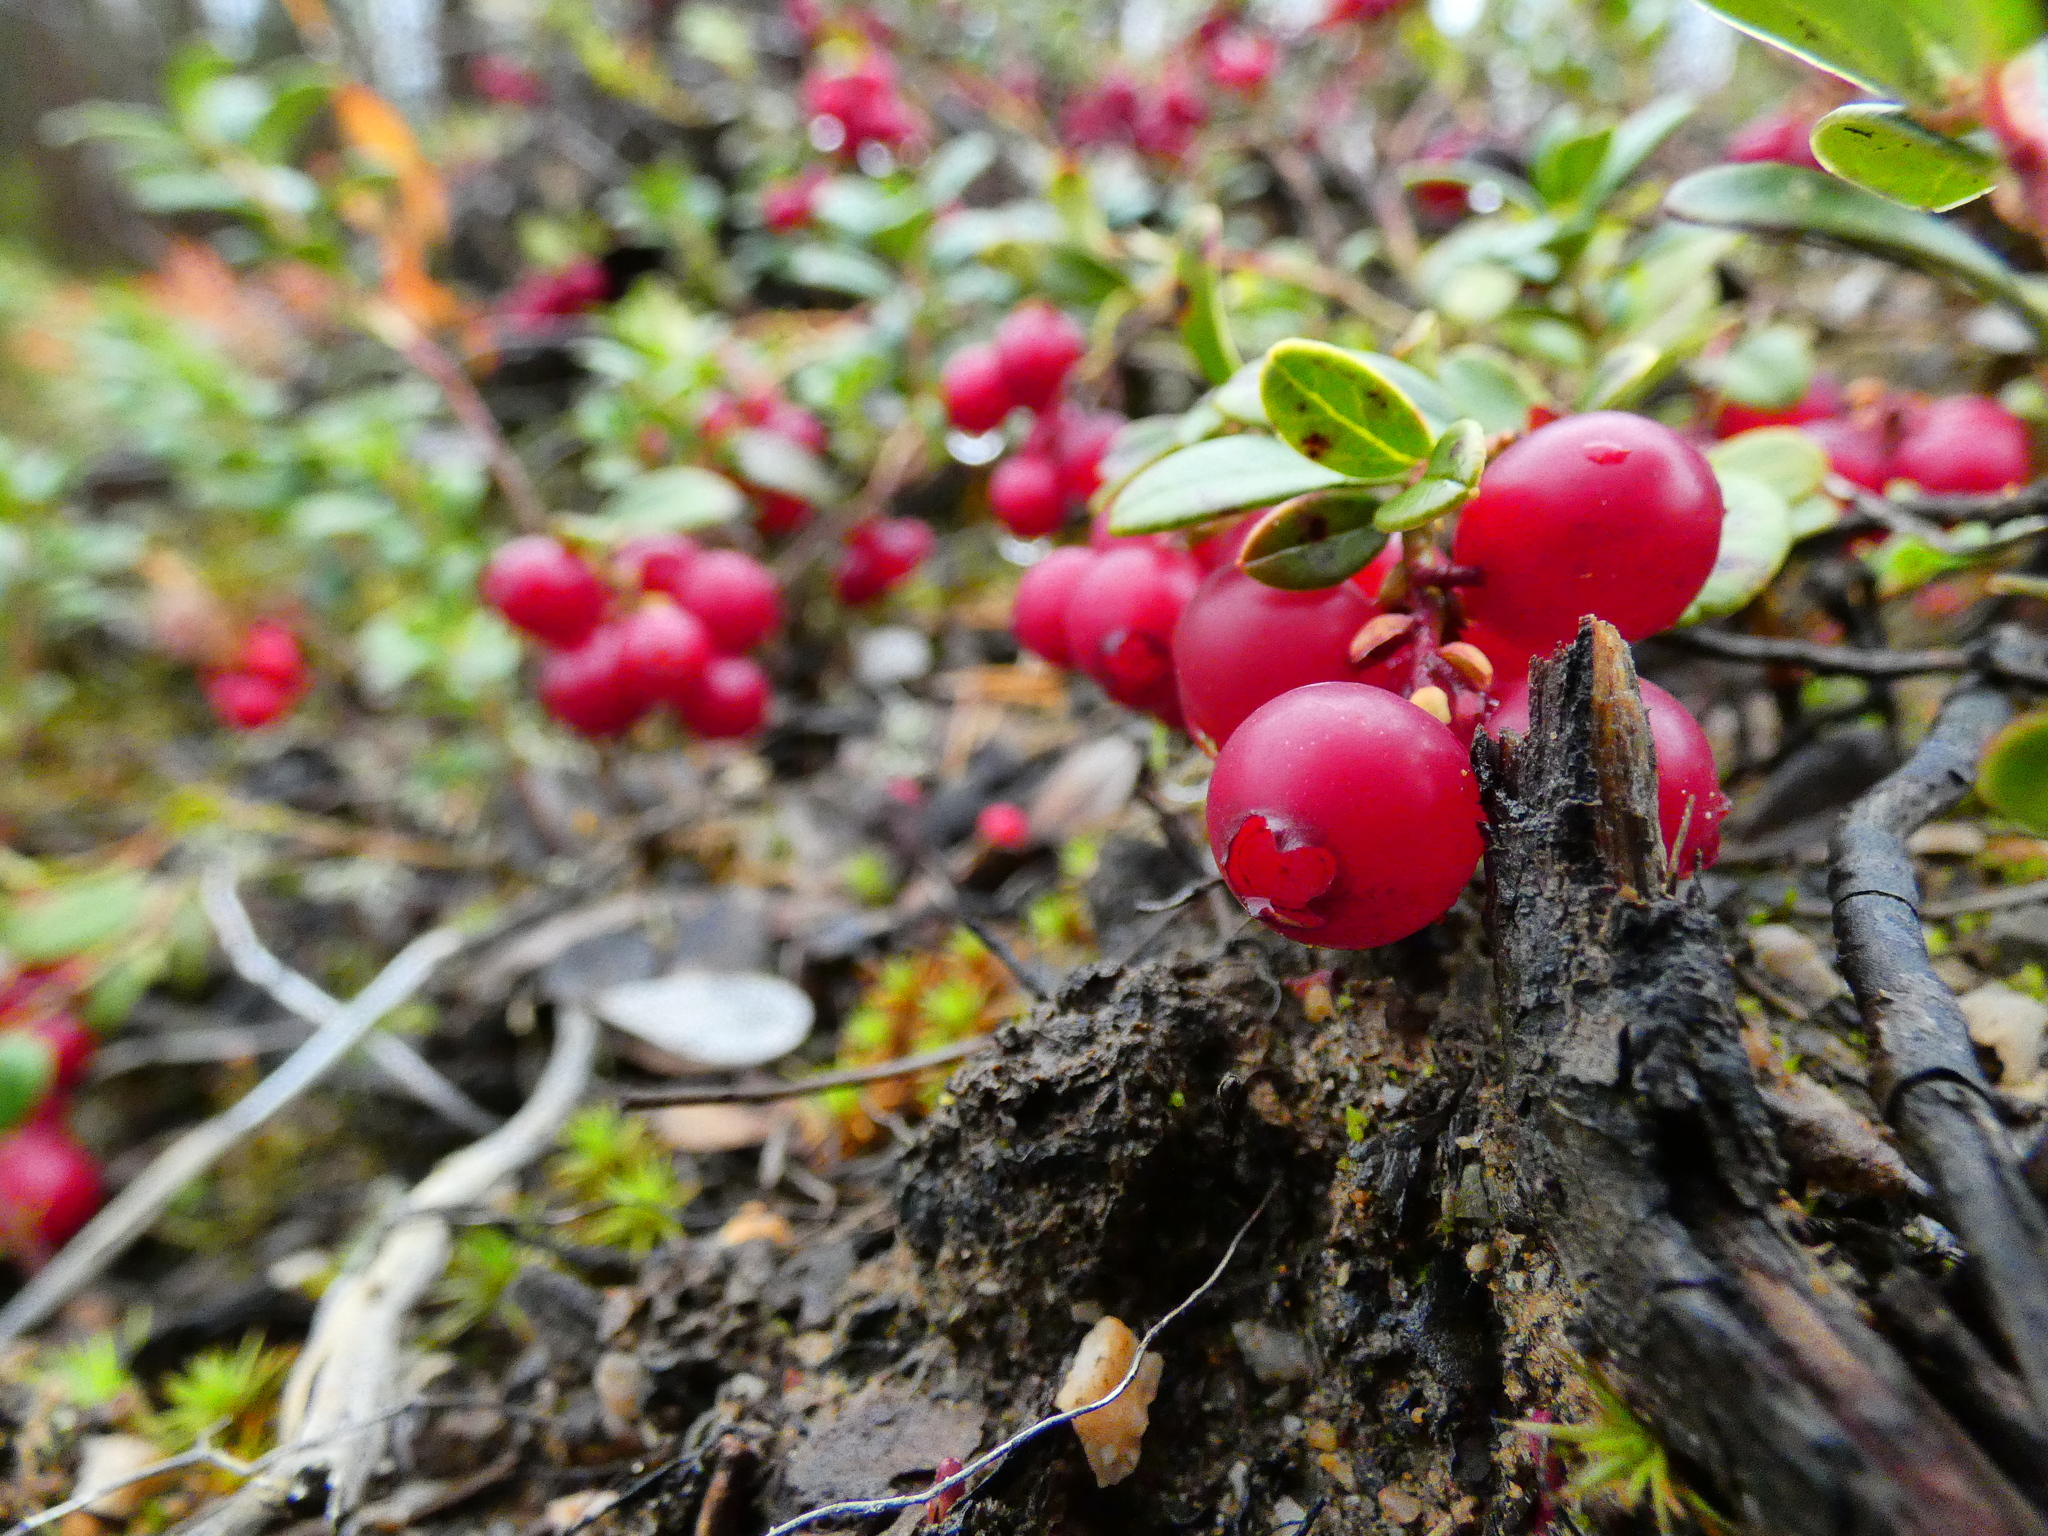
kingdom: Plantae
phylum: Tracheophyta
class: Magnoliopsida
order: Ericales
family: Ericaceae
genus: Vaccinium
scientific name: Vaccinium vitis-idaea
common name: Cowberry
